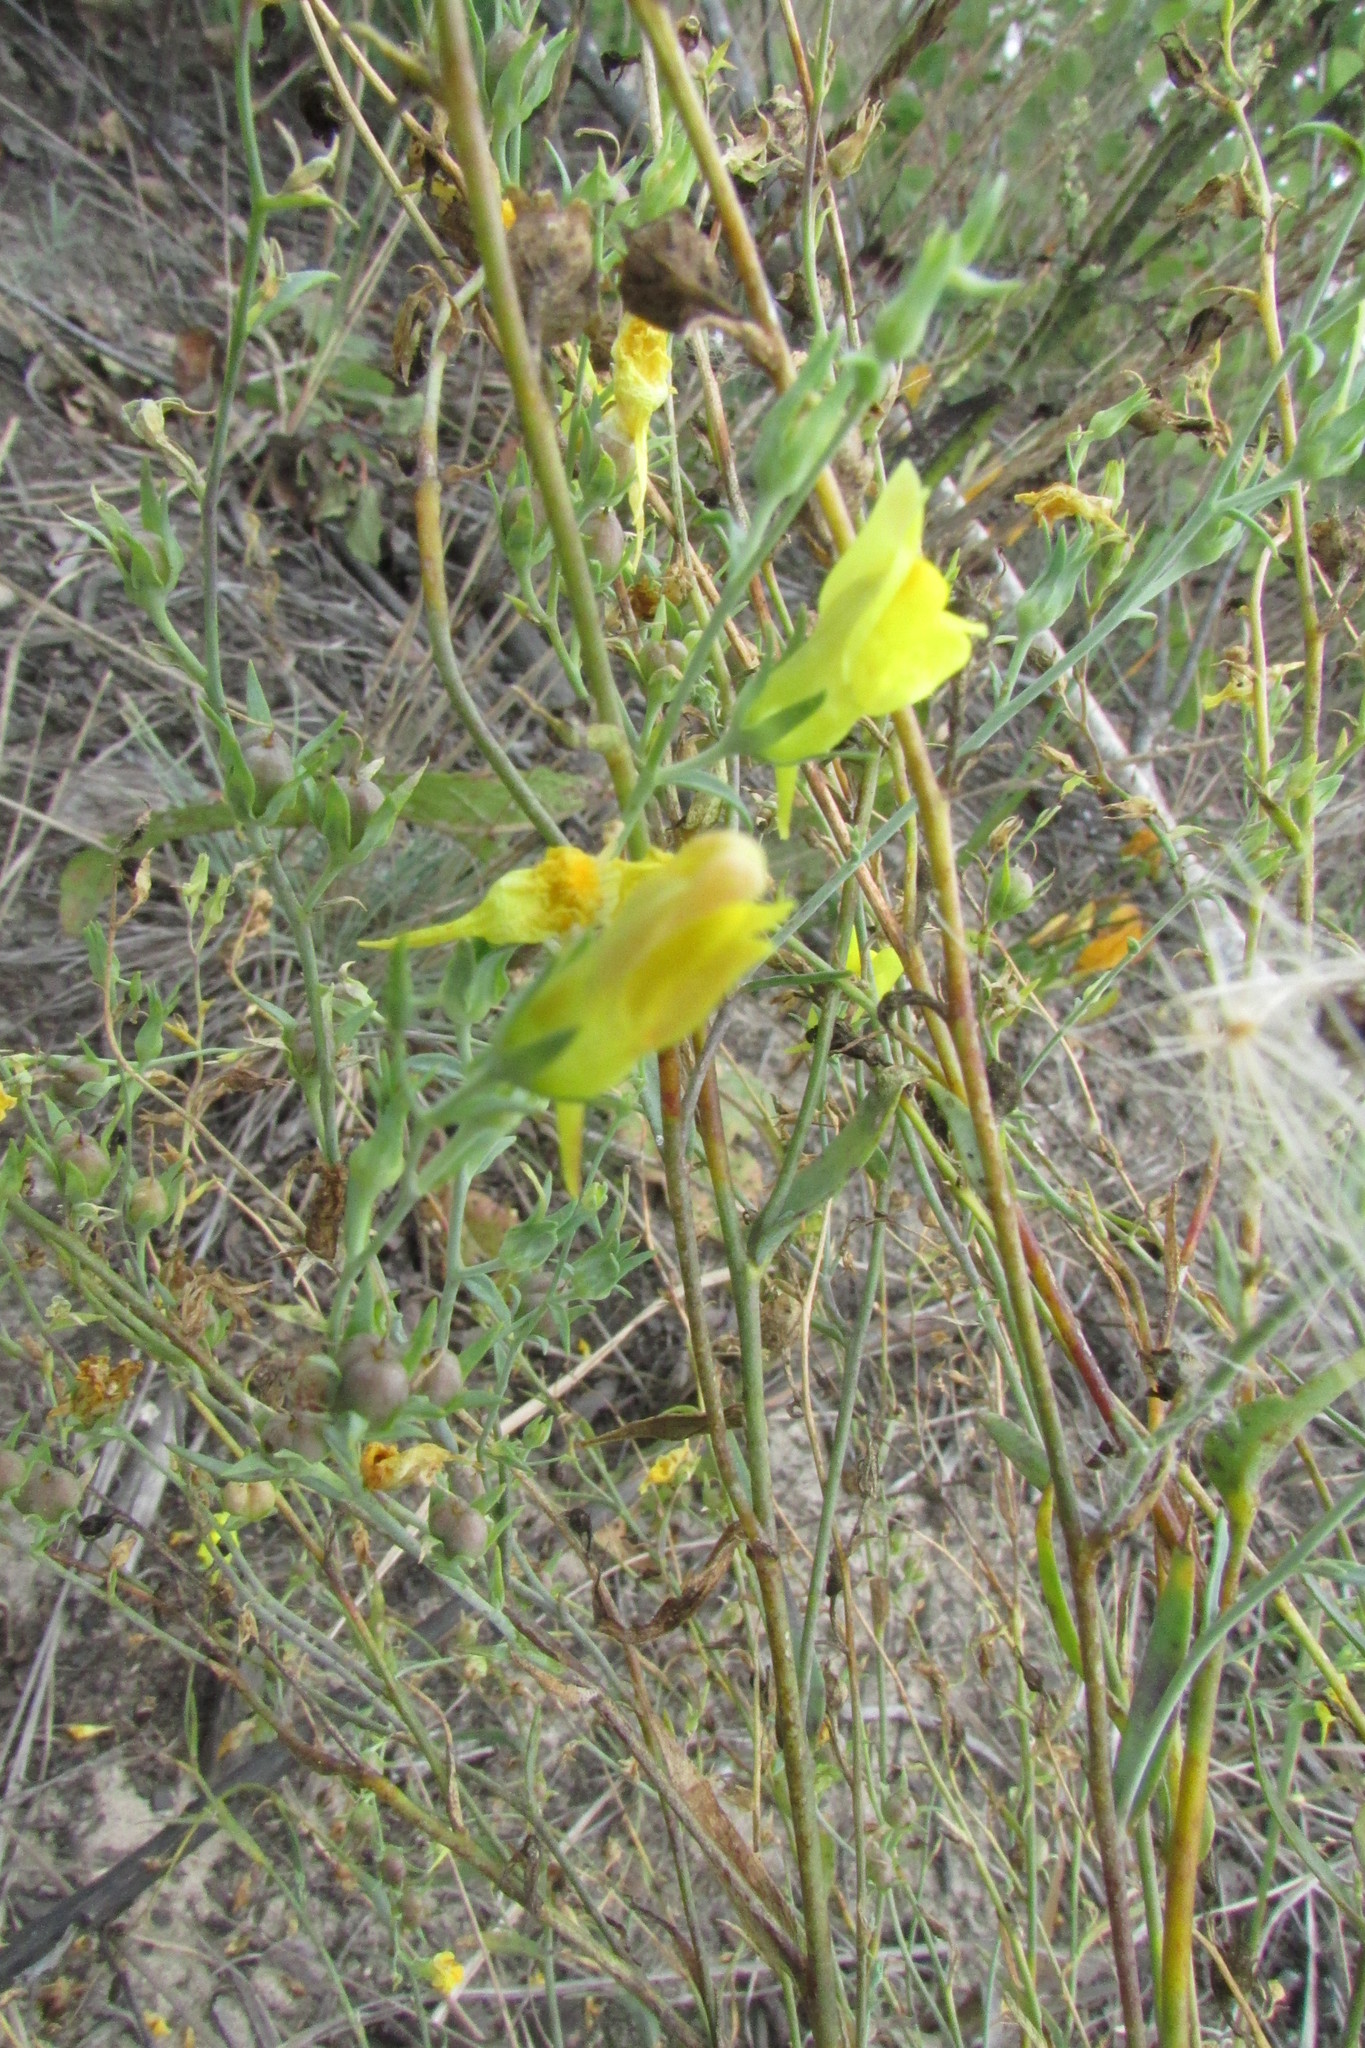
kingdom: Plantae
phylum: Tracheophyta
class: Magnoliopsida
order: Lamiales
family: Plantaginaceae
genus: Linaria
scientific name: Linaria genistifolia
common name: Broomleaf toadflax
